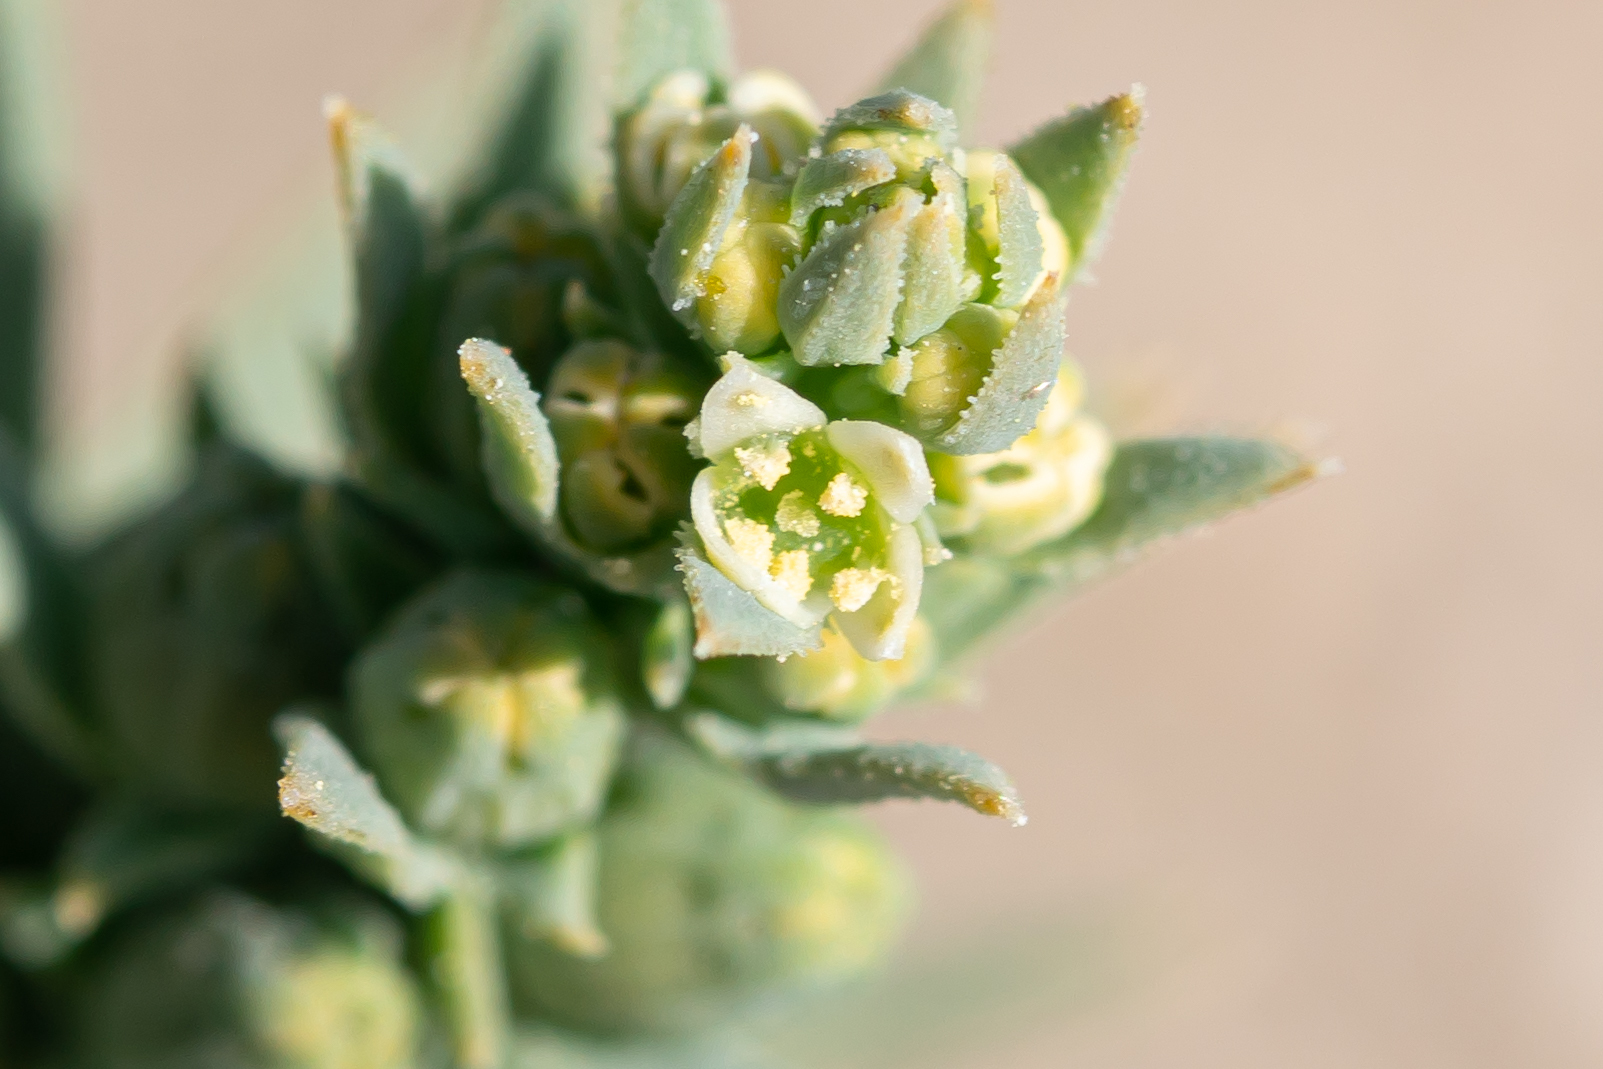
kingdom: Plantae
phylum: Tracheophyta
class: Magnoliopsida
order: Santalales
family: Thesiaceae
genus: Thesium
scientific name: Thesium humile
